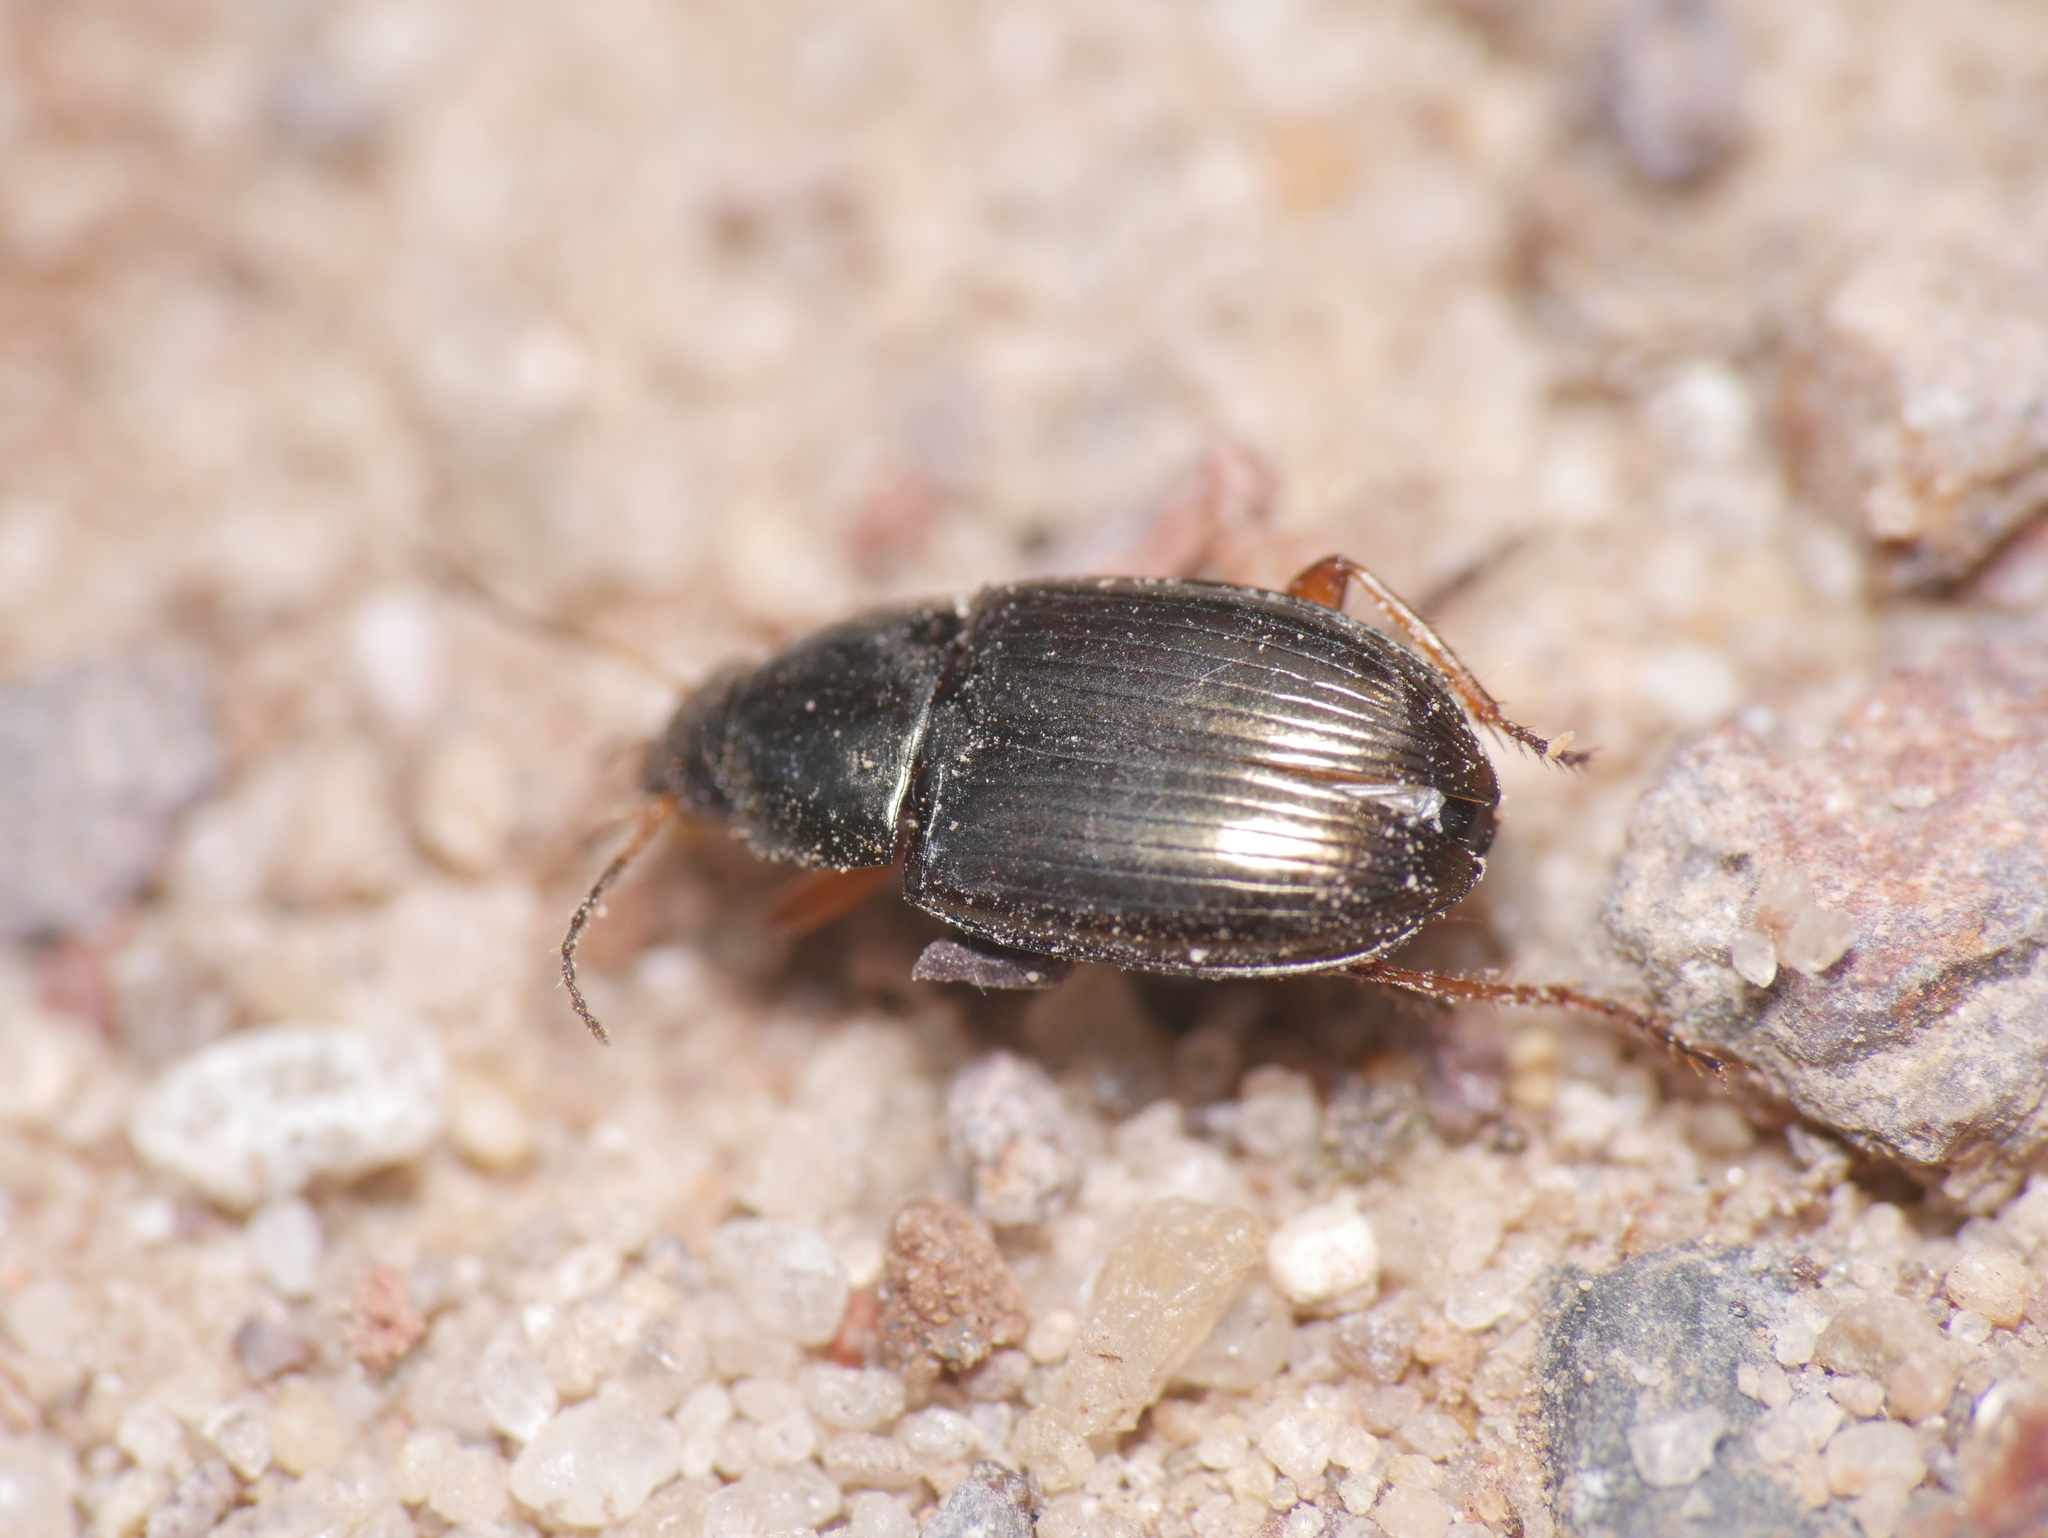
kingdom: Animalia
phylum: Arthropoda
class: Insecta
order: Coleoptera
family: Carabidae
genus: Amara
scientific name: Amara anthobia
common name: Italy harp ground beetle
